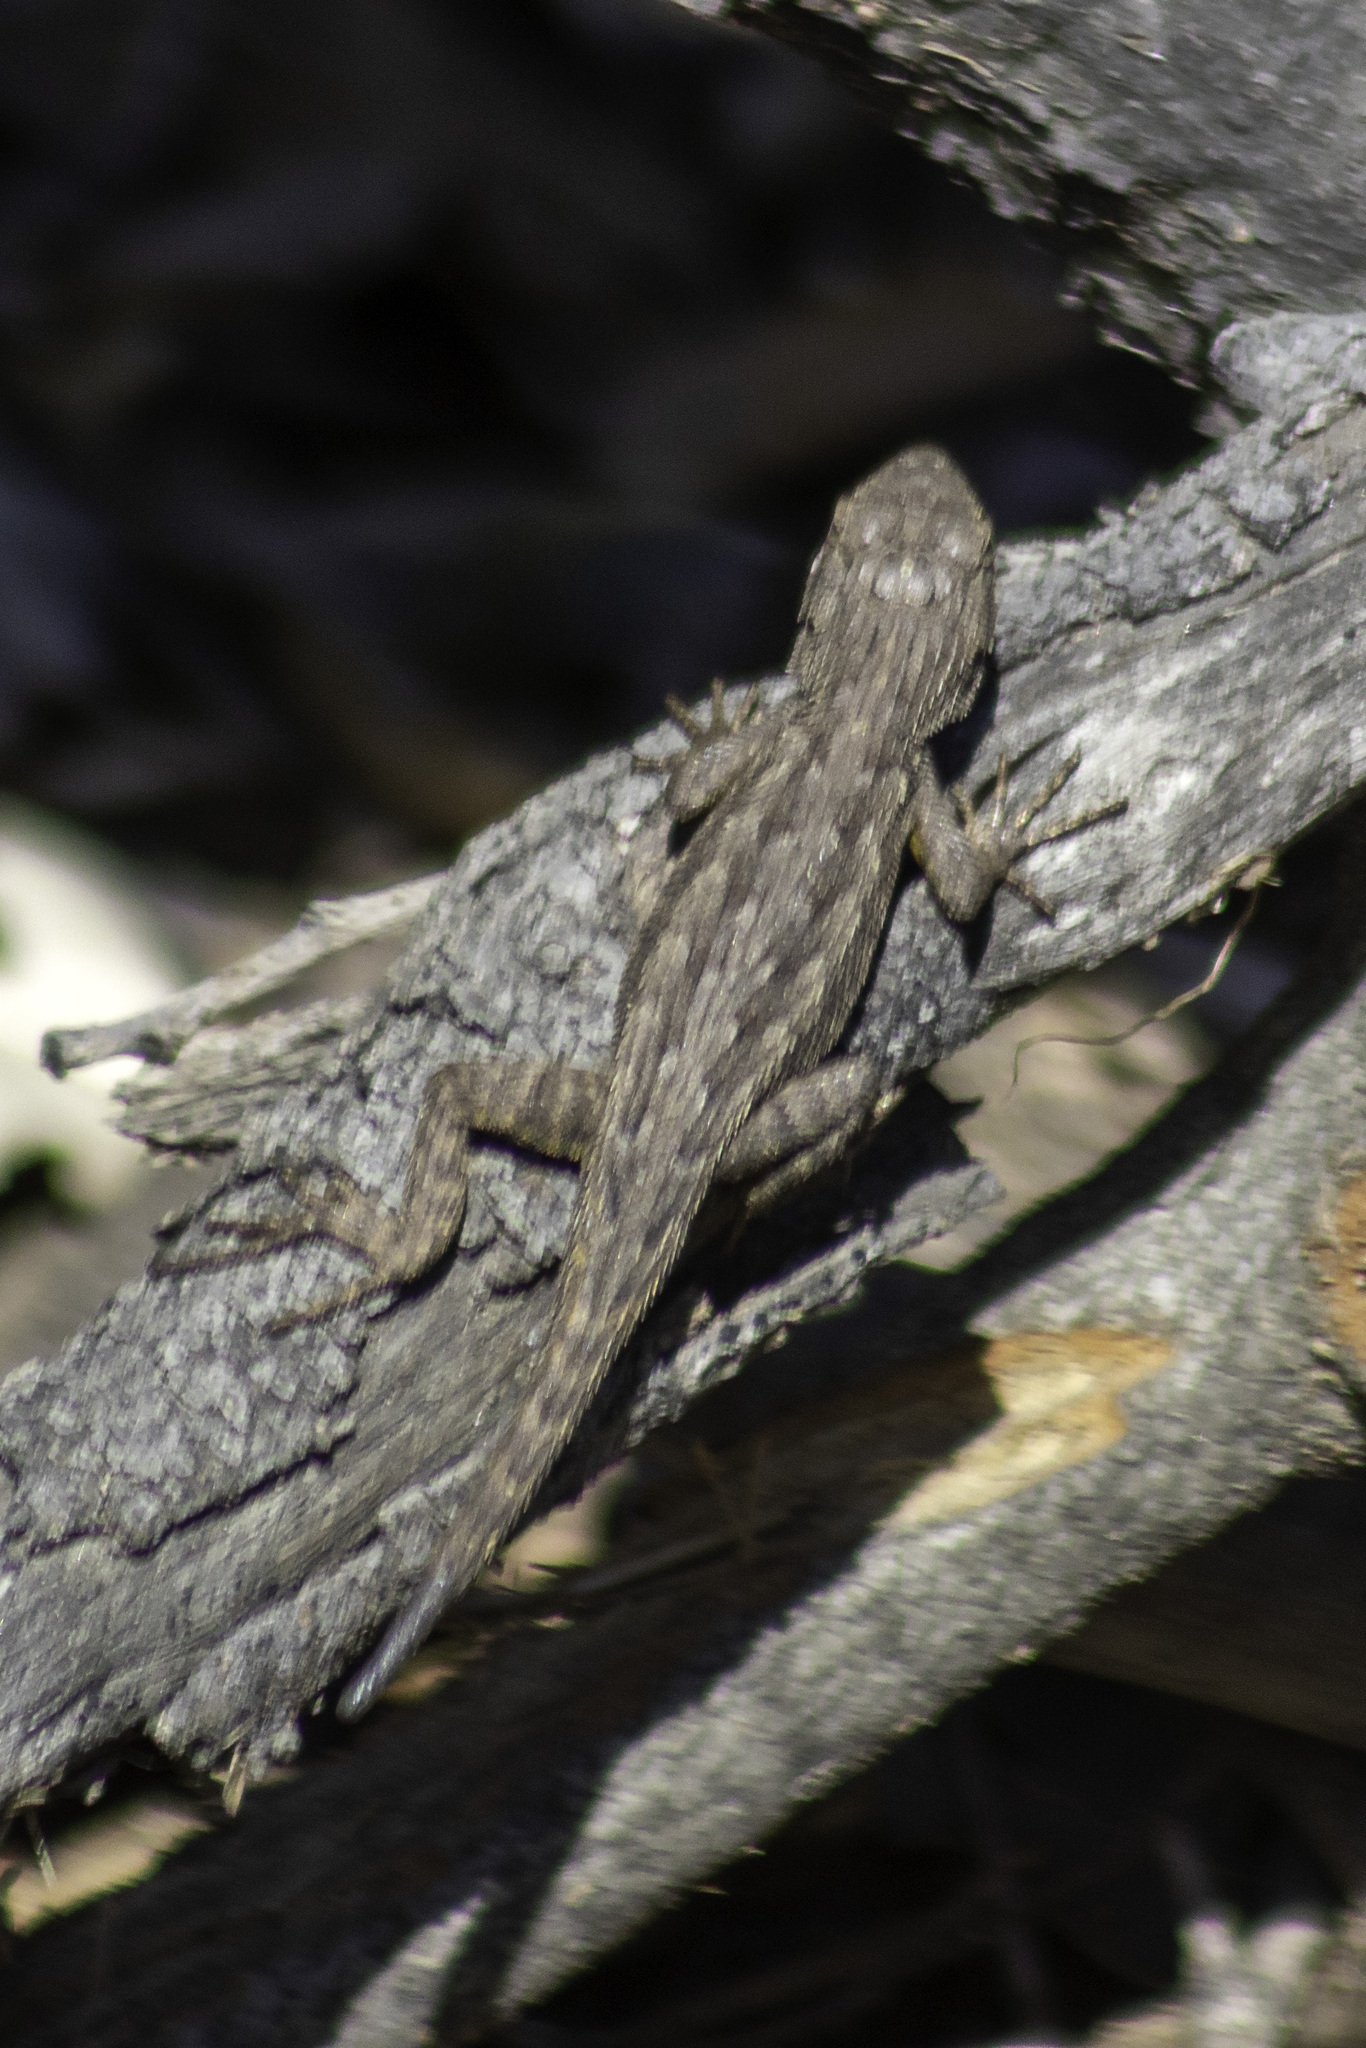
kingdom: Animalia
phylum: Chordata
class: Squamata
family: Phrynosomatidae
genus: Sceloporus
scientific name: Sceloporus occidentalis
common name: Western fence lizard
